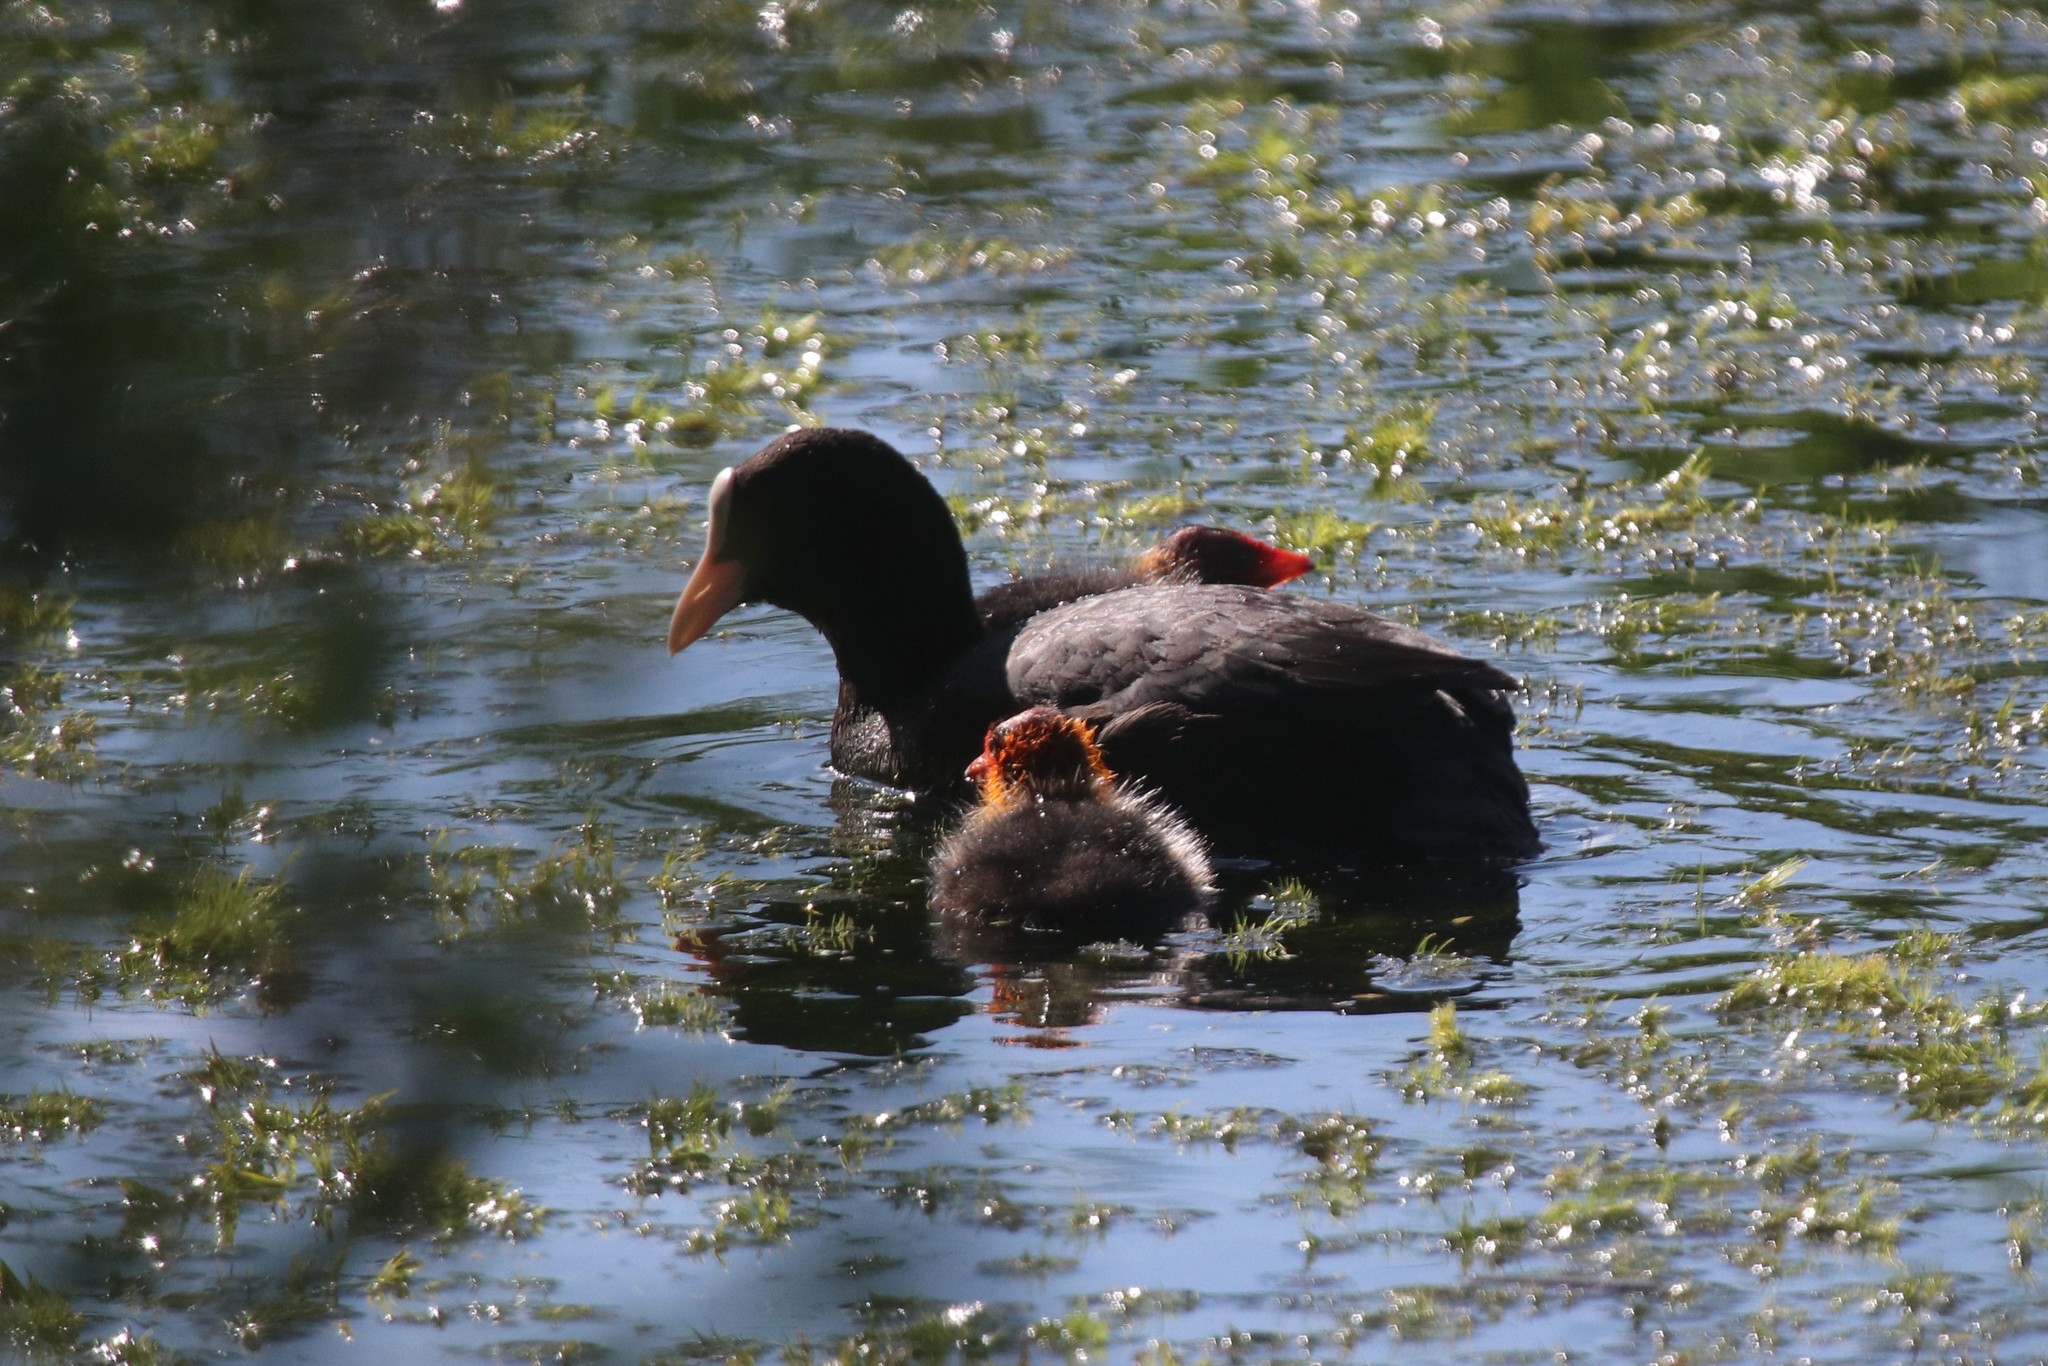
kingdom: Animalia
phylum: Chordata
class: Aves
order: Gruiformes
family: Rallidae
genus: Fulica
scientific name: Fulica atra
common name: Eurasian coot
